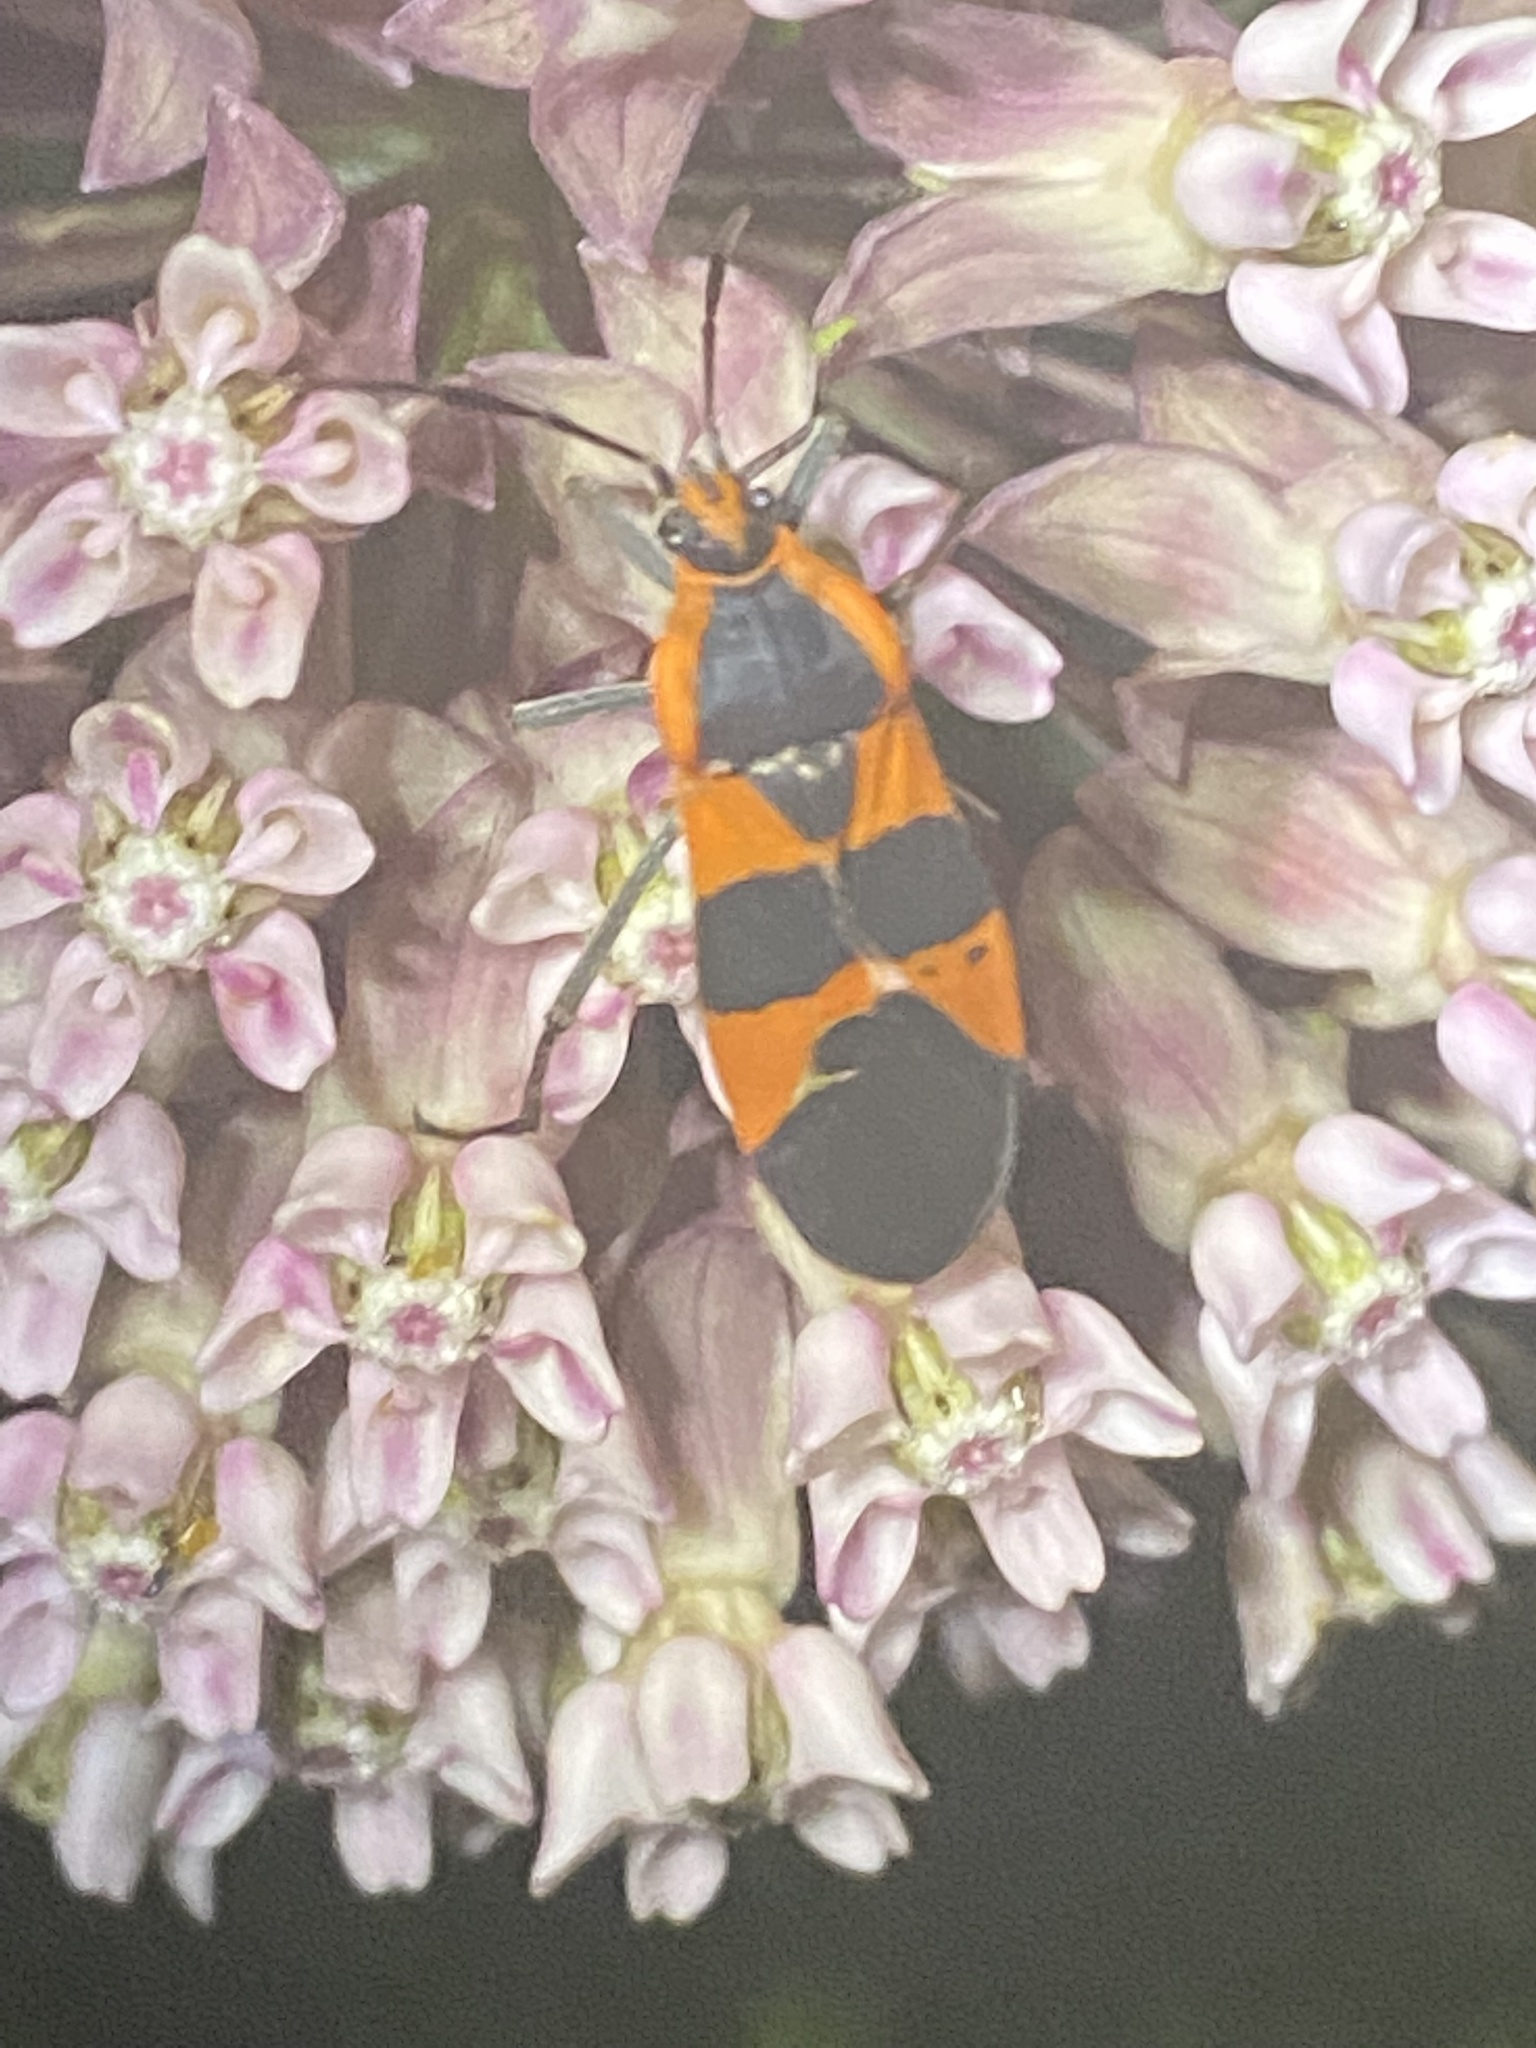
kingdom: Animalia
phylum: Arthropoda
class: Insecta
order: Hemiptera
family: Lygaeidae
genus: Oncopeltus
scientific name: Oncopeltus fasciatus
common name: Large milkweed bug
